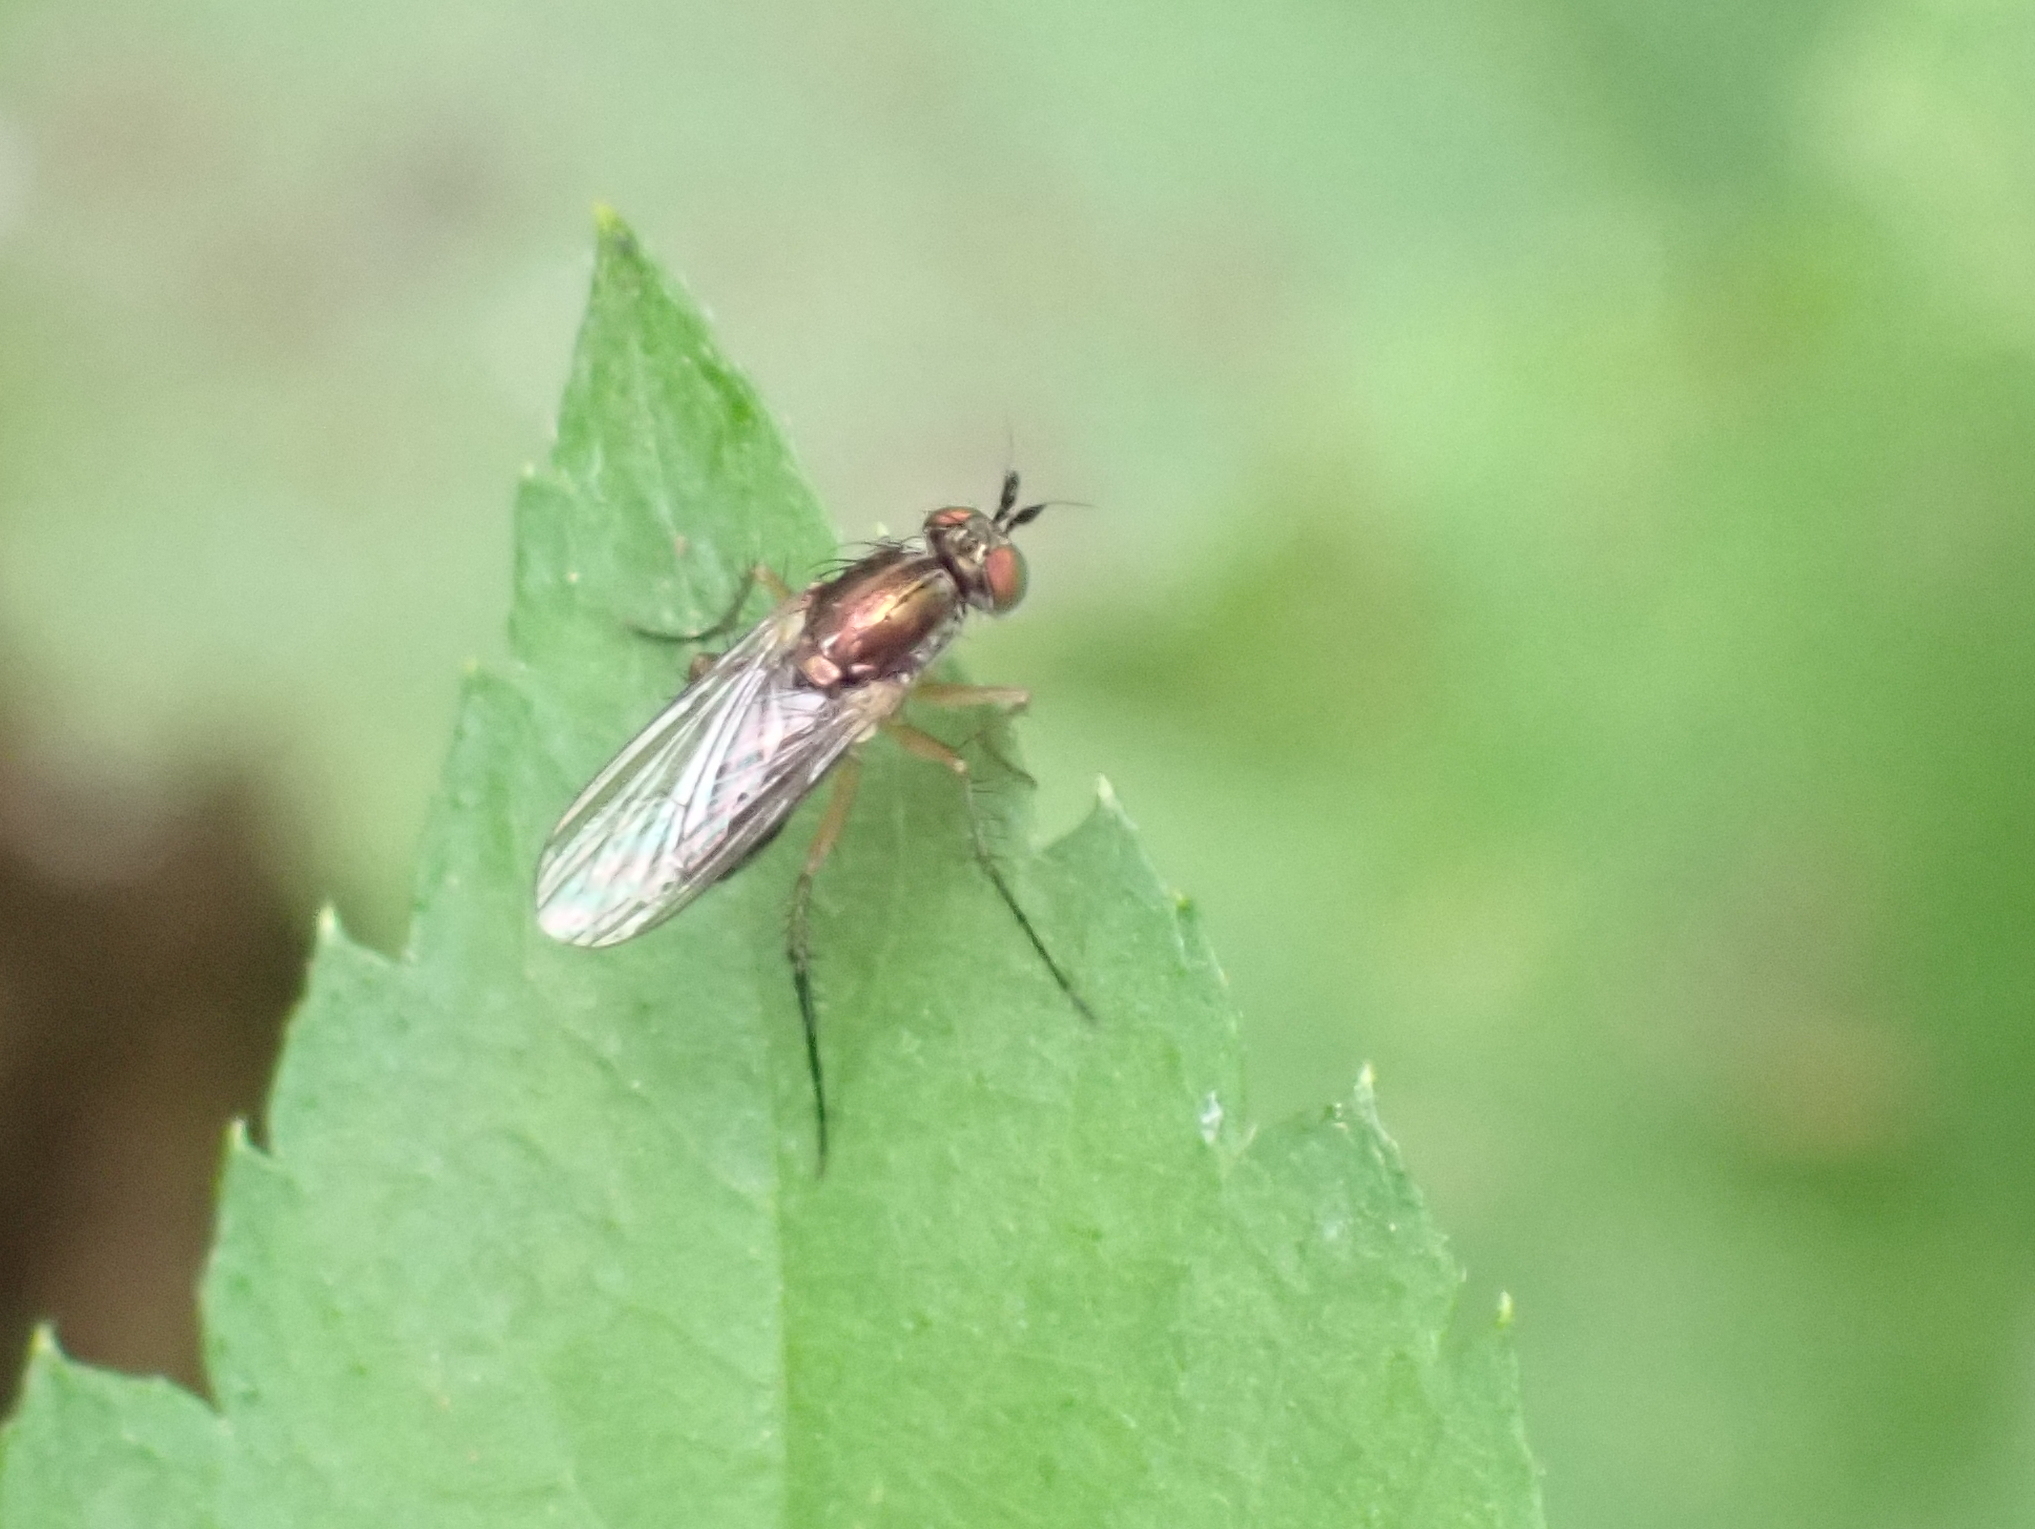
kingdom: Animalia
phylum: Arthropoda
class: Insecta
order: Diptera
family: Dolichopodidae
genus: Dolichopus
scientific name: Dolichopus
